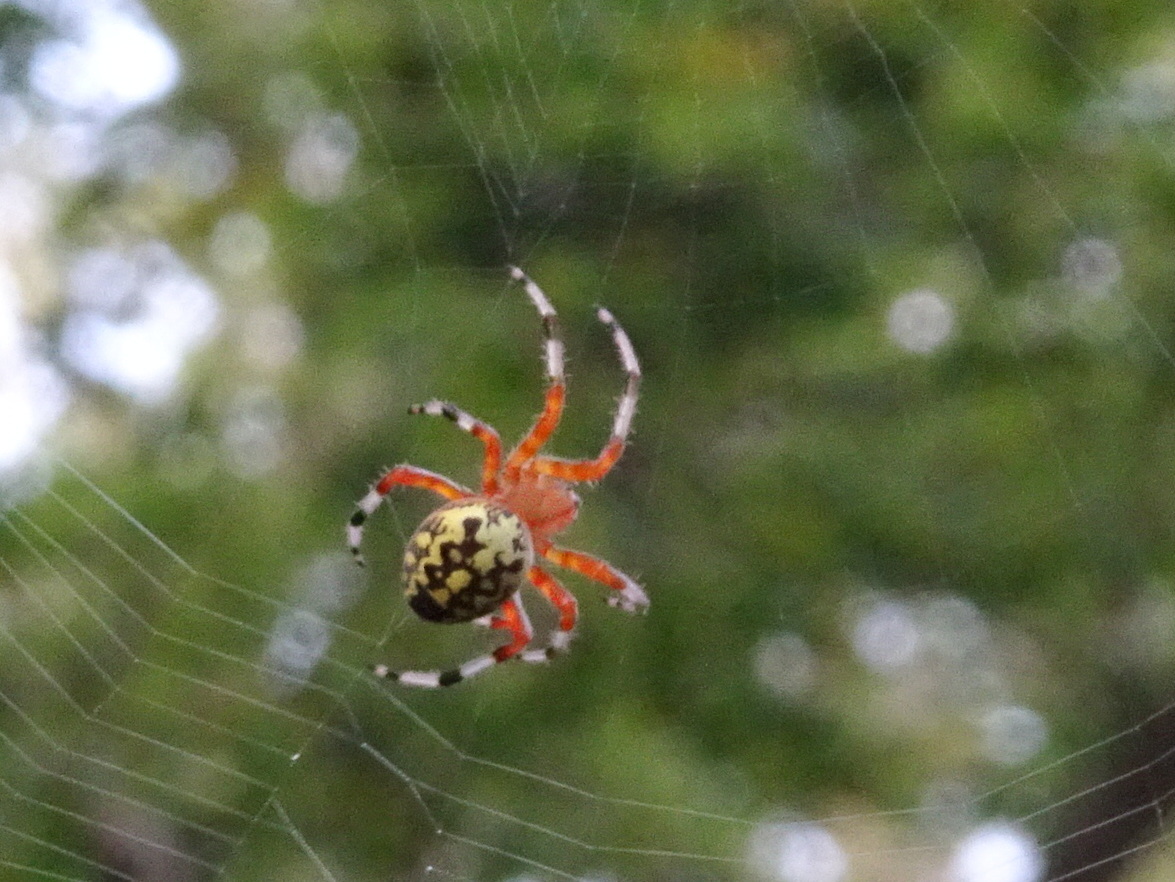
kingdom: Animalia
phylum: Arthropoda
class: Arachnida
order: Araneae
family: Araneidae
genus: Araneus
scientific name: Araneus marmoreus
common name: Marbled orbweaver
